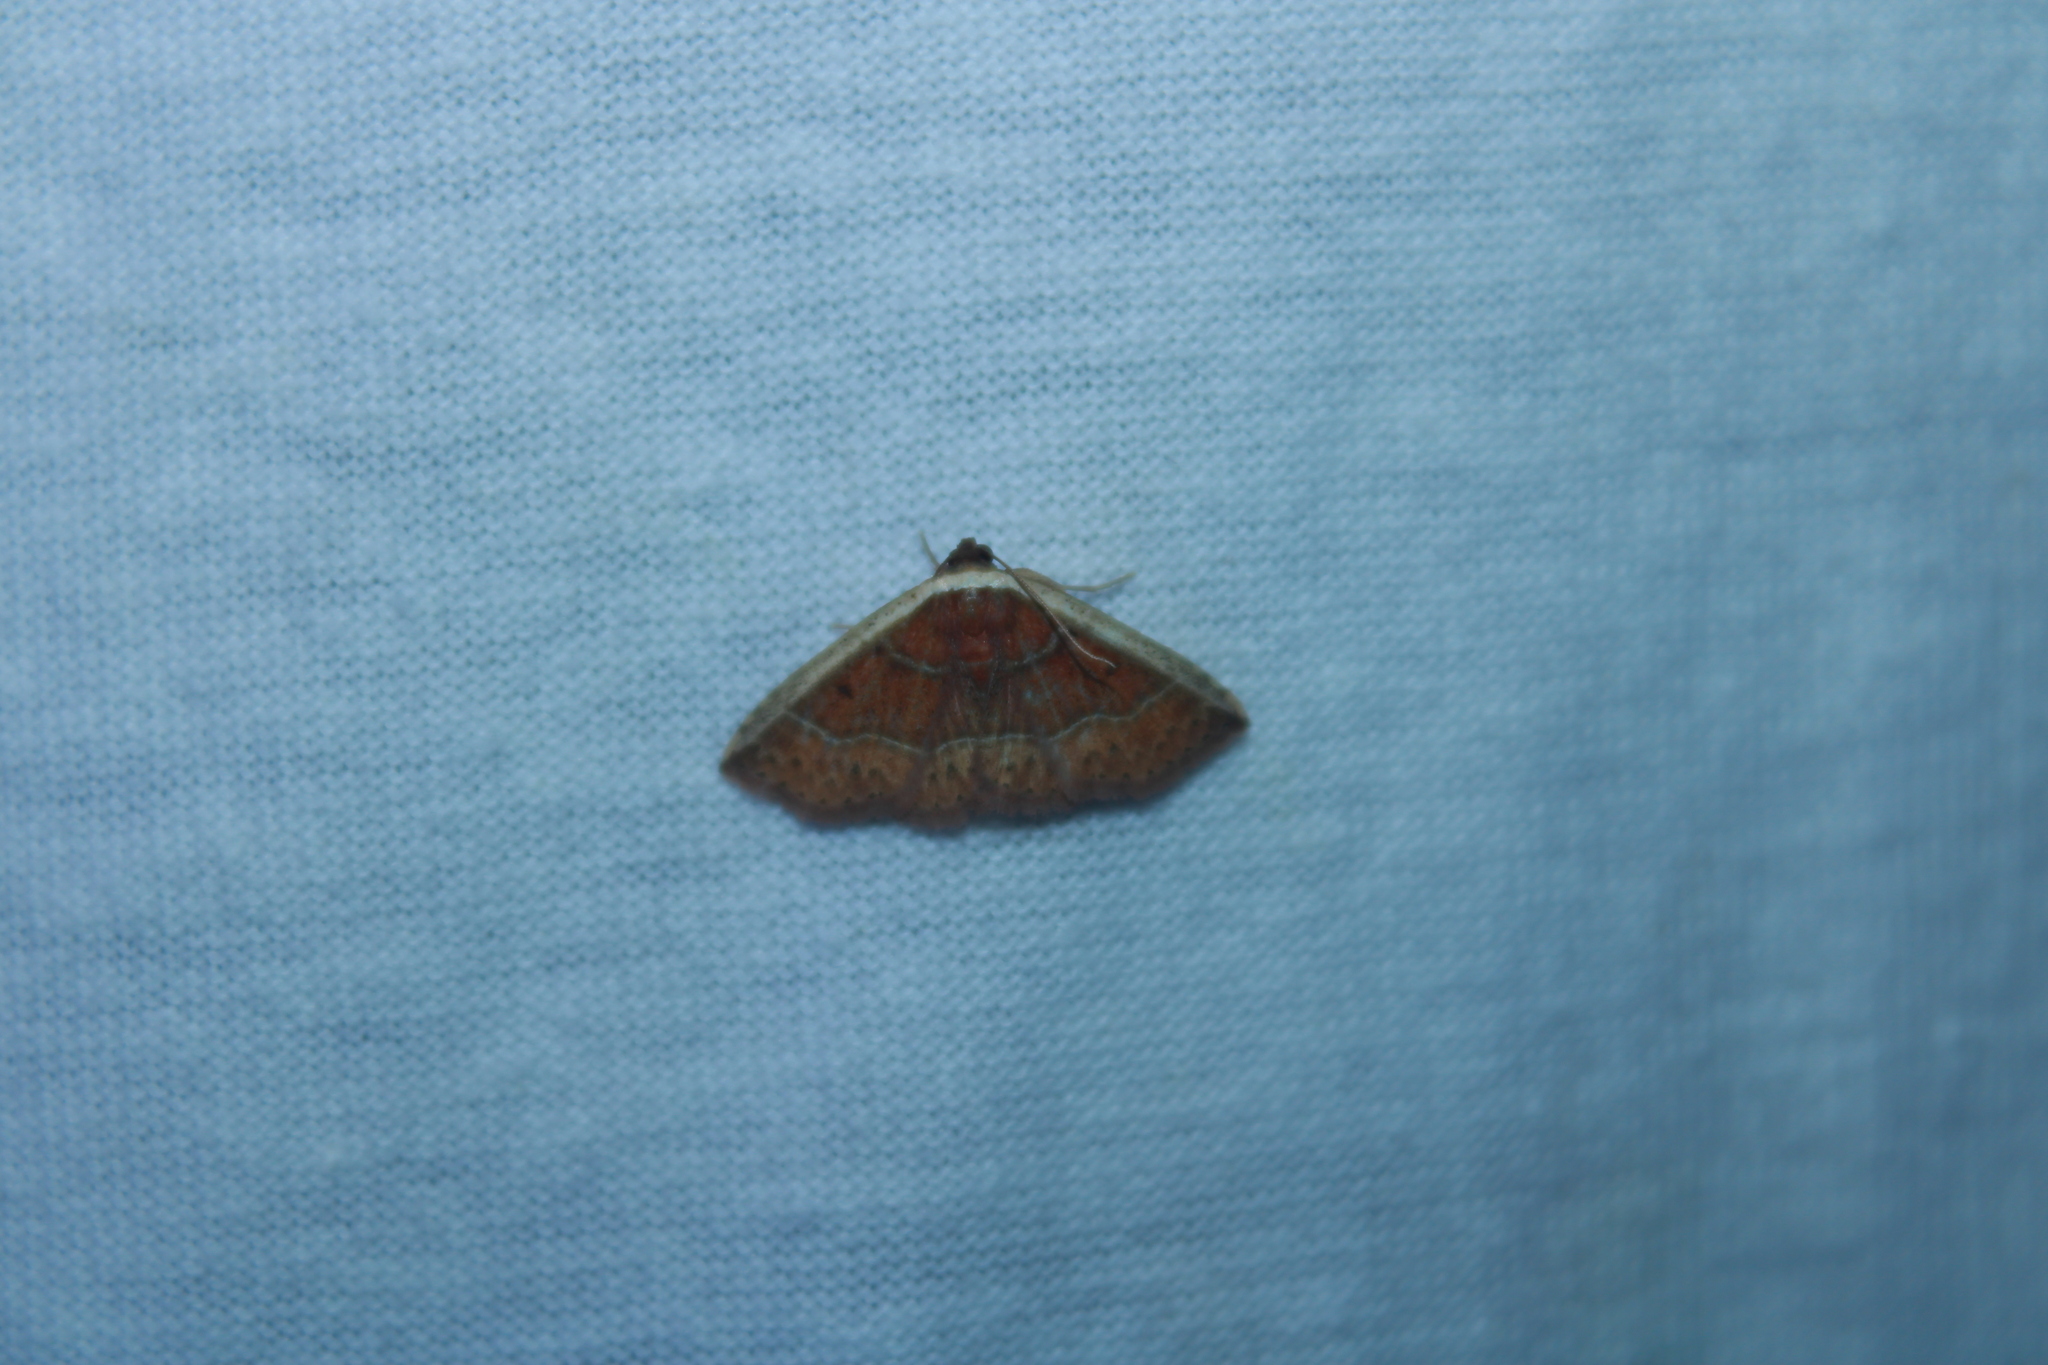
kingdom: Animalia
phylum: Arthropoda
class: Insecta
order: Lepidoptera
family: Noctuidae
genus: Ozarba
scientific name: Ozarba albocostaliata
